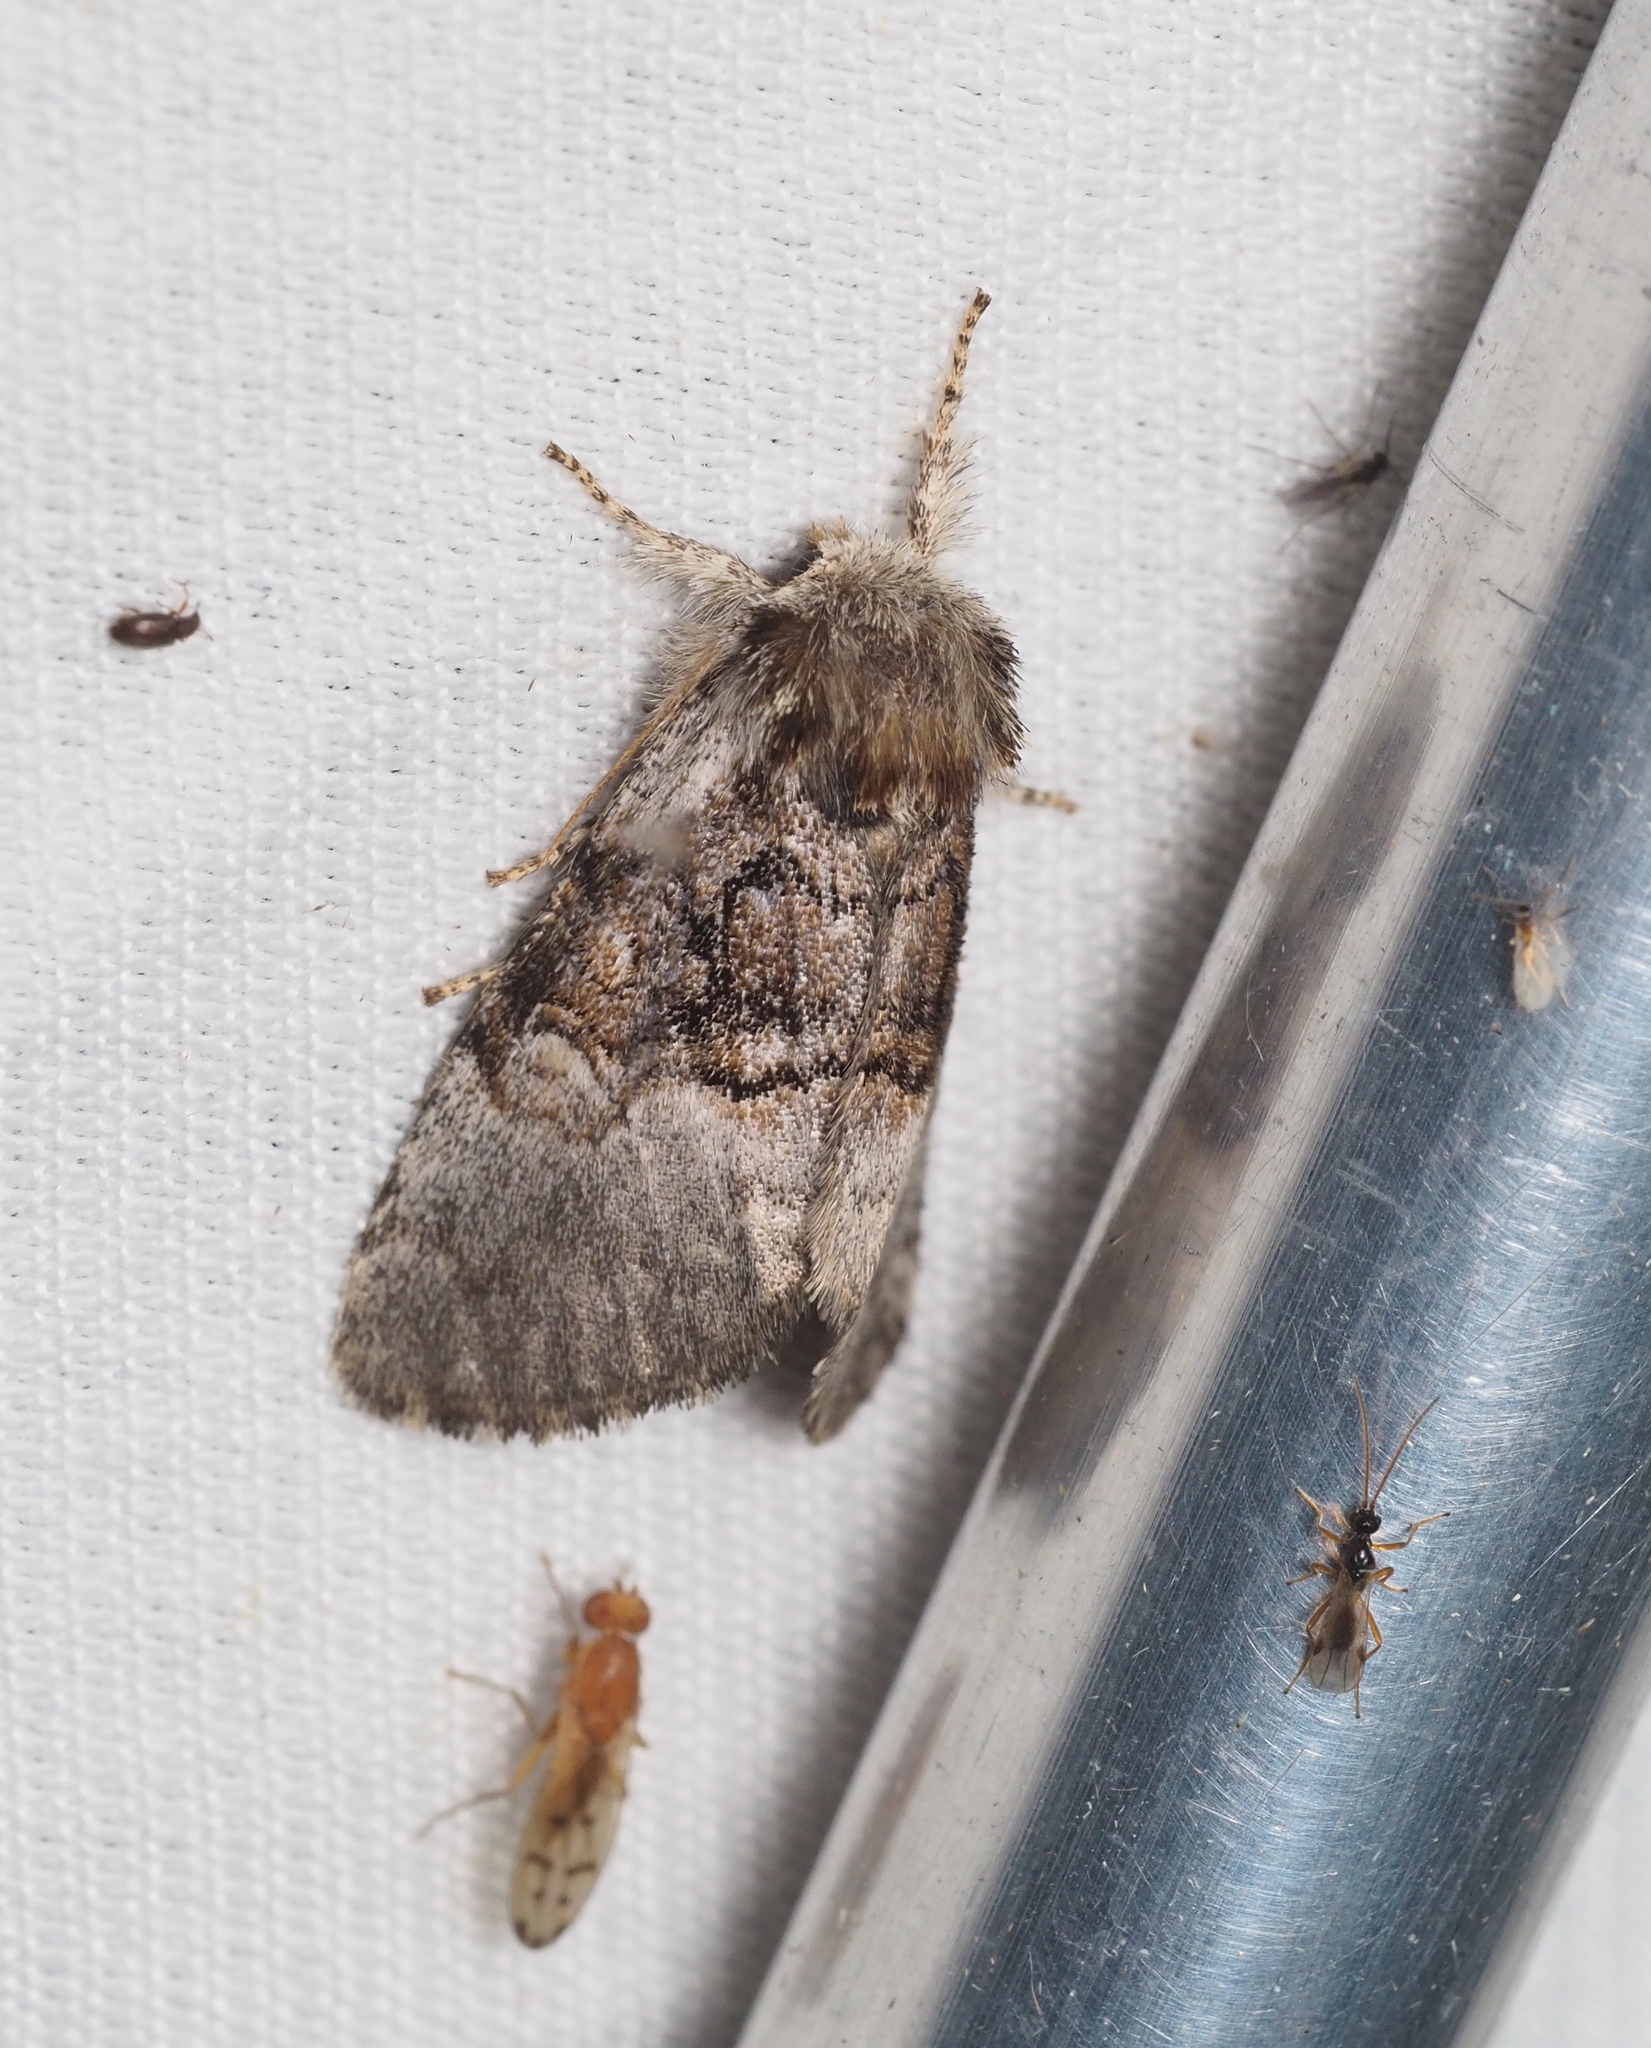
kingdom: Animalia
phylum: Arthropoda
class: Insecta
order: Lepidoptera
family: Noctuidae
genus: Colocasia
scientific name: Colocasia coryli
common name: Nut-tree tussock
